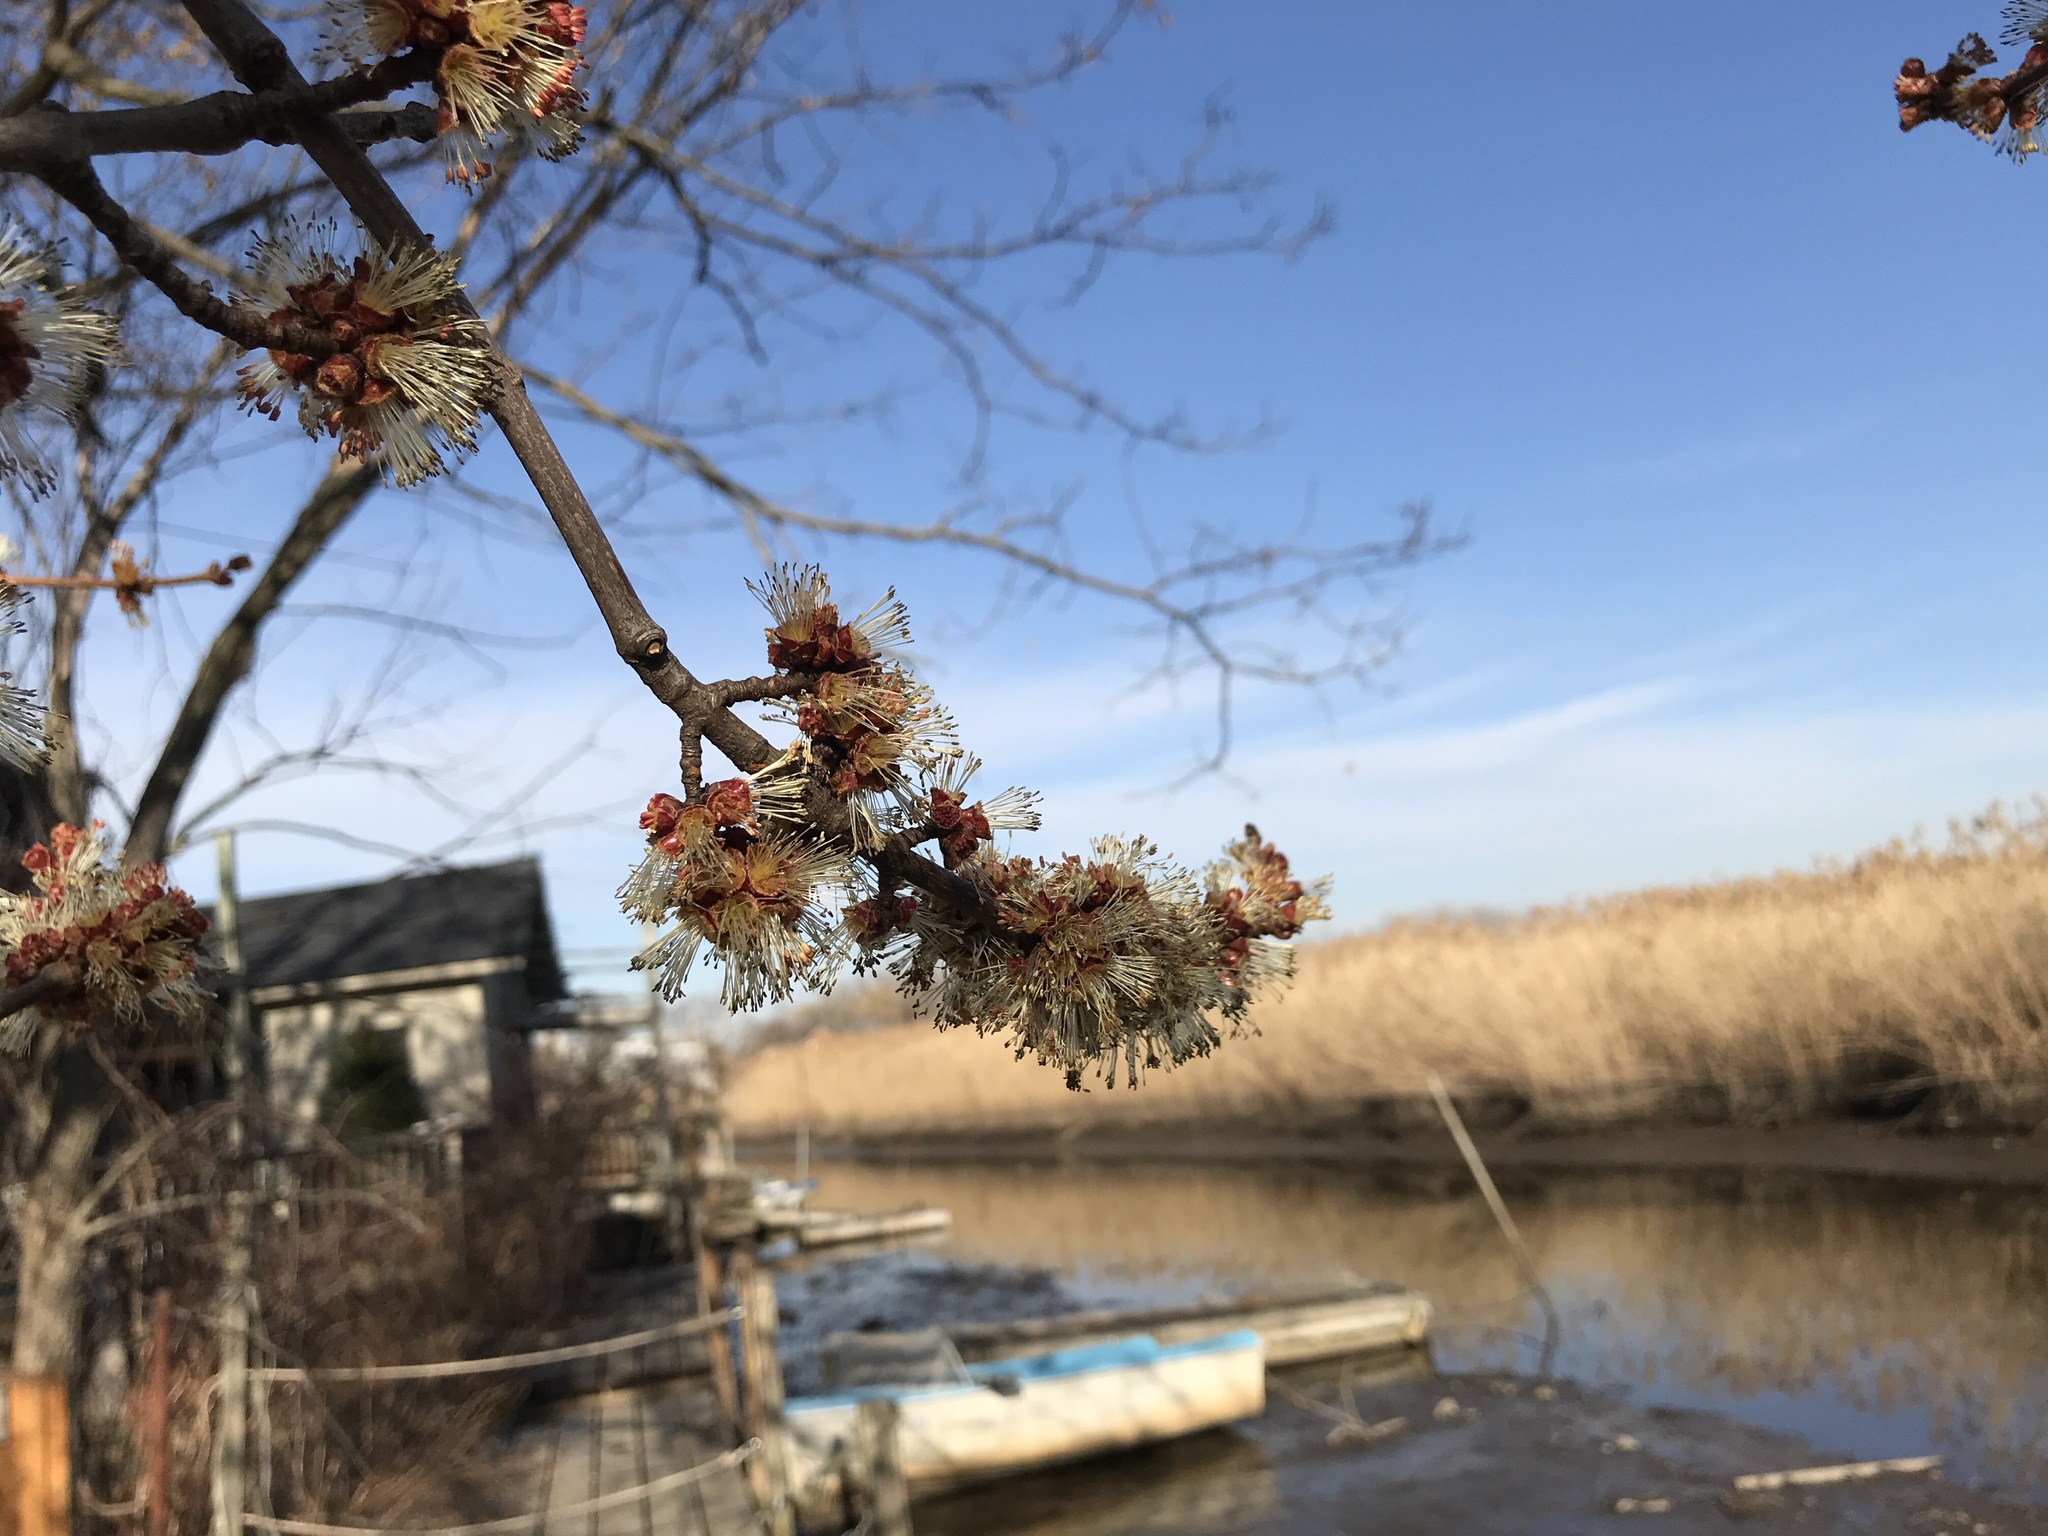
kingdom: Plantae
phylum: Tracheophyta
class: Magnoliopsida
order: Sapindales
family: Sapindaceae
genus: Acer
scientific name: Acer rubrum
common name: Red maple
